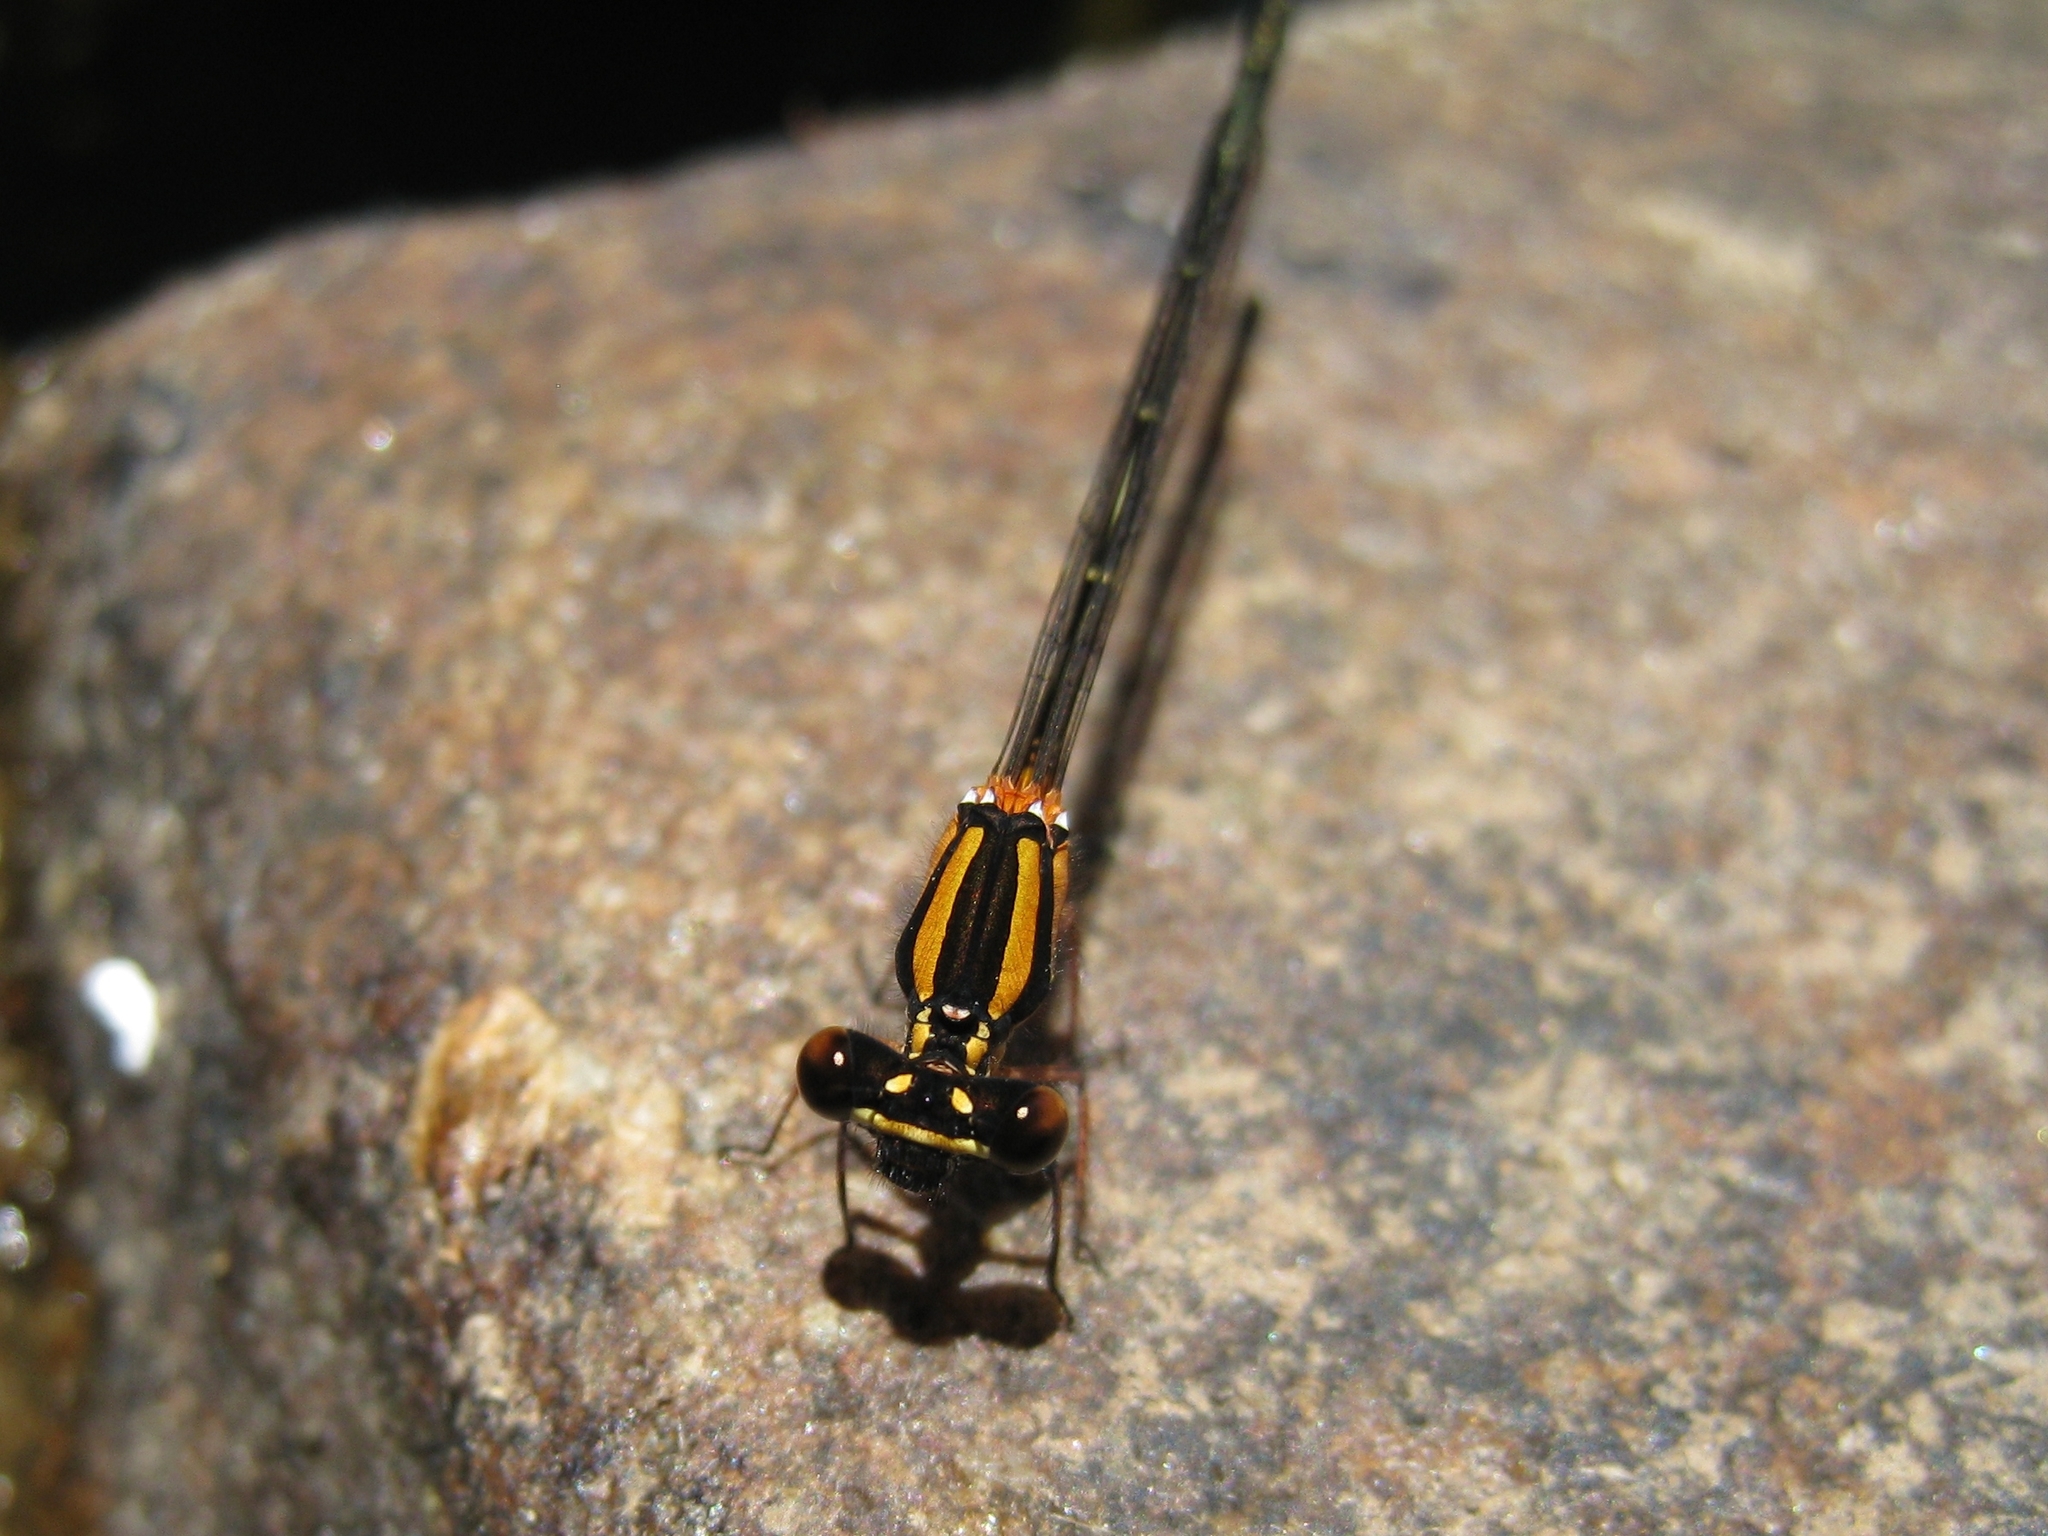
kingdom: Animalia
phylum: Arthropoda
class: Insecta
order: Odonata
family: Platycnemididae
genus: Nososticta
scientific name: Nososticta solida
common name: Orange threadtail
